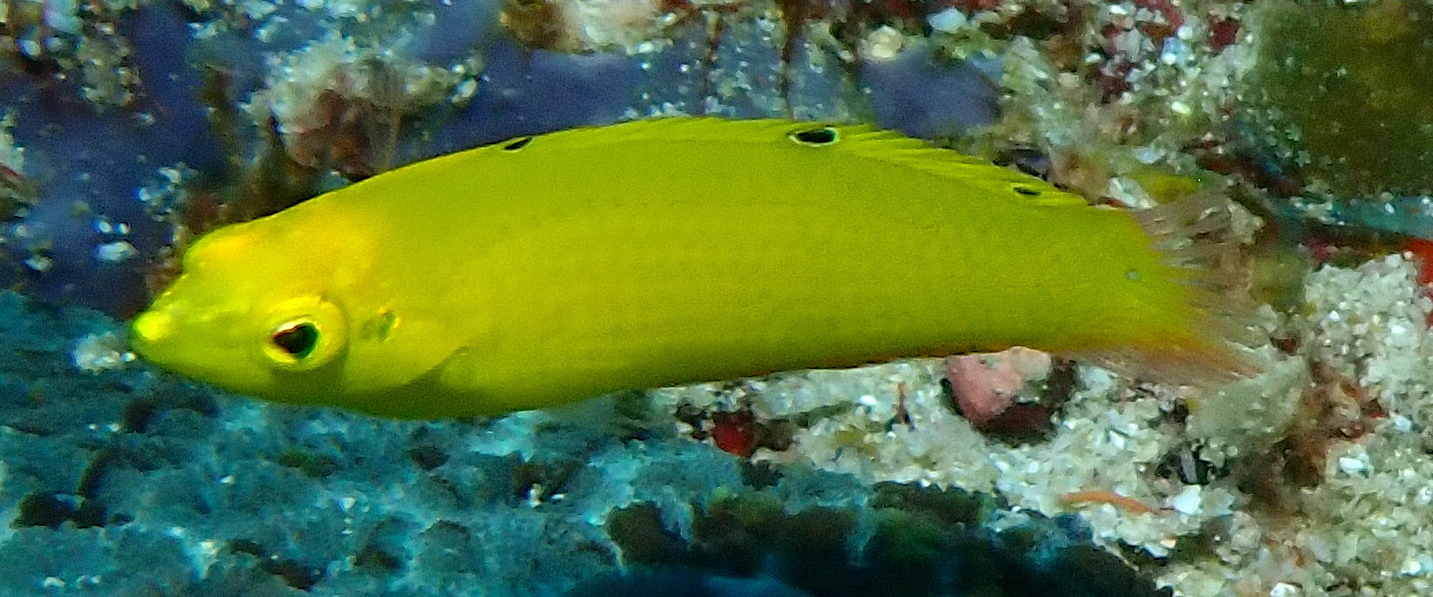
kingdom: Animalia
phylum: Chordata
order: Perciformes
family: Labridae
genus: Halichoeres
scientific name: Halichoeres chrysus
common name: Canary wrasse
